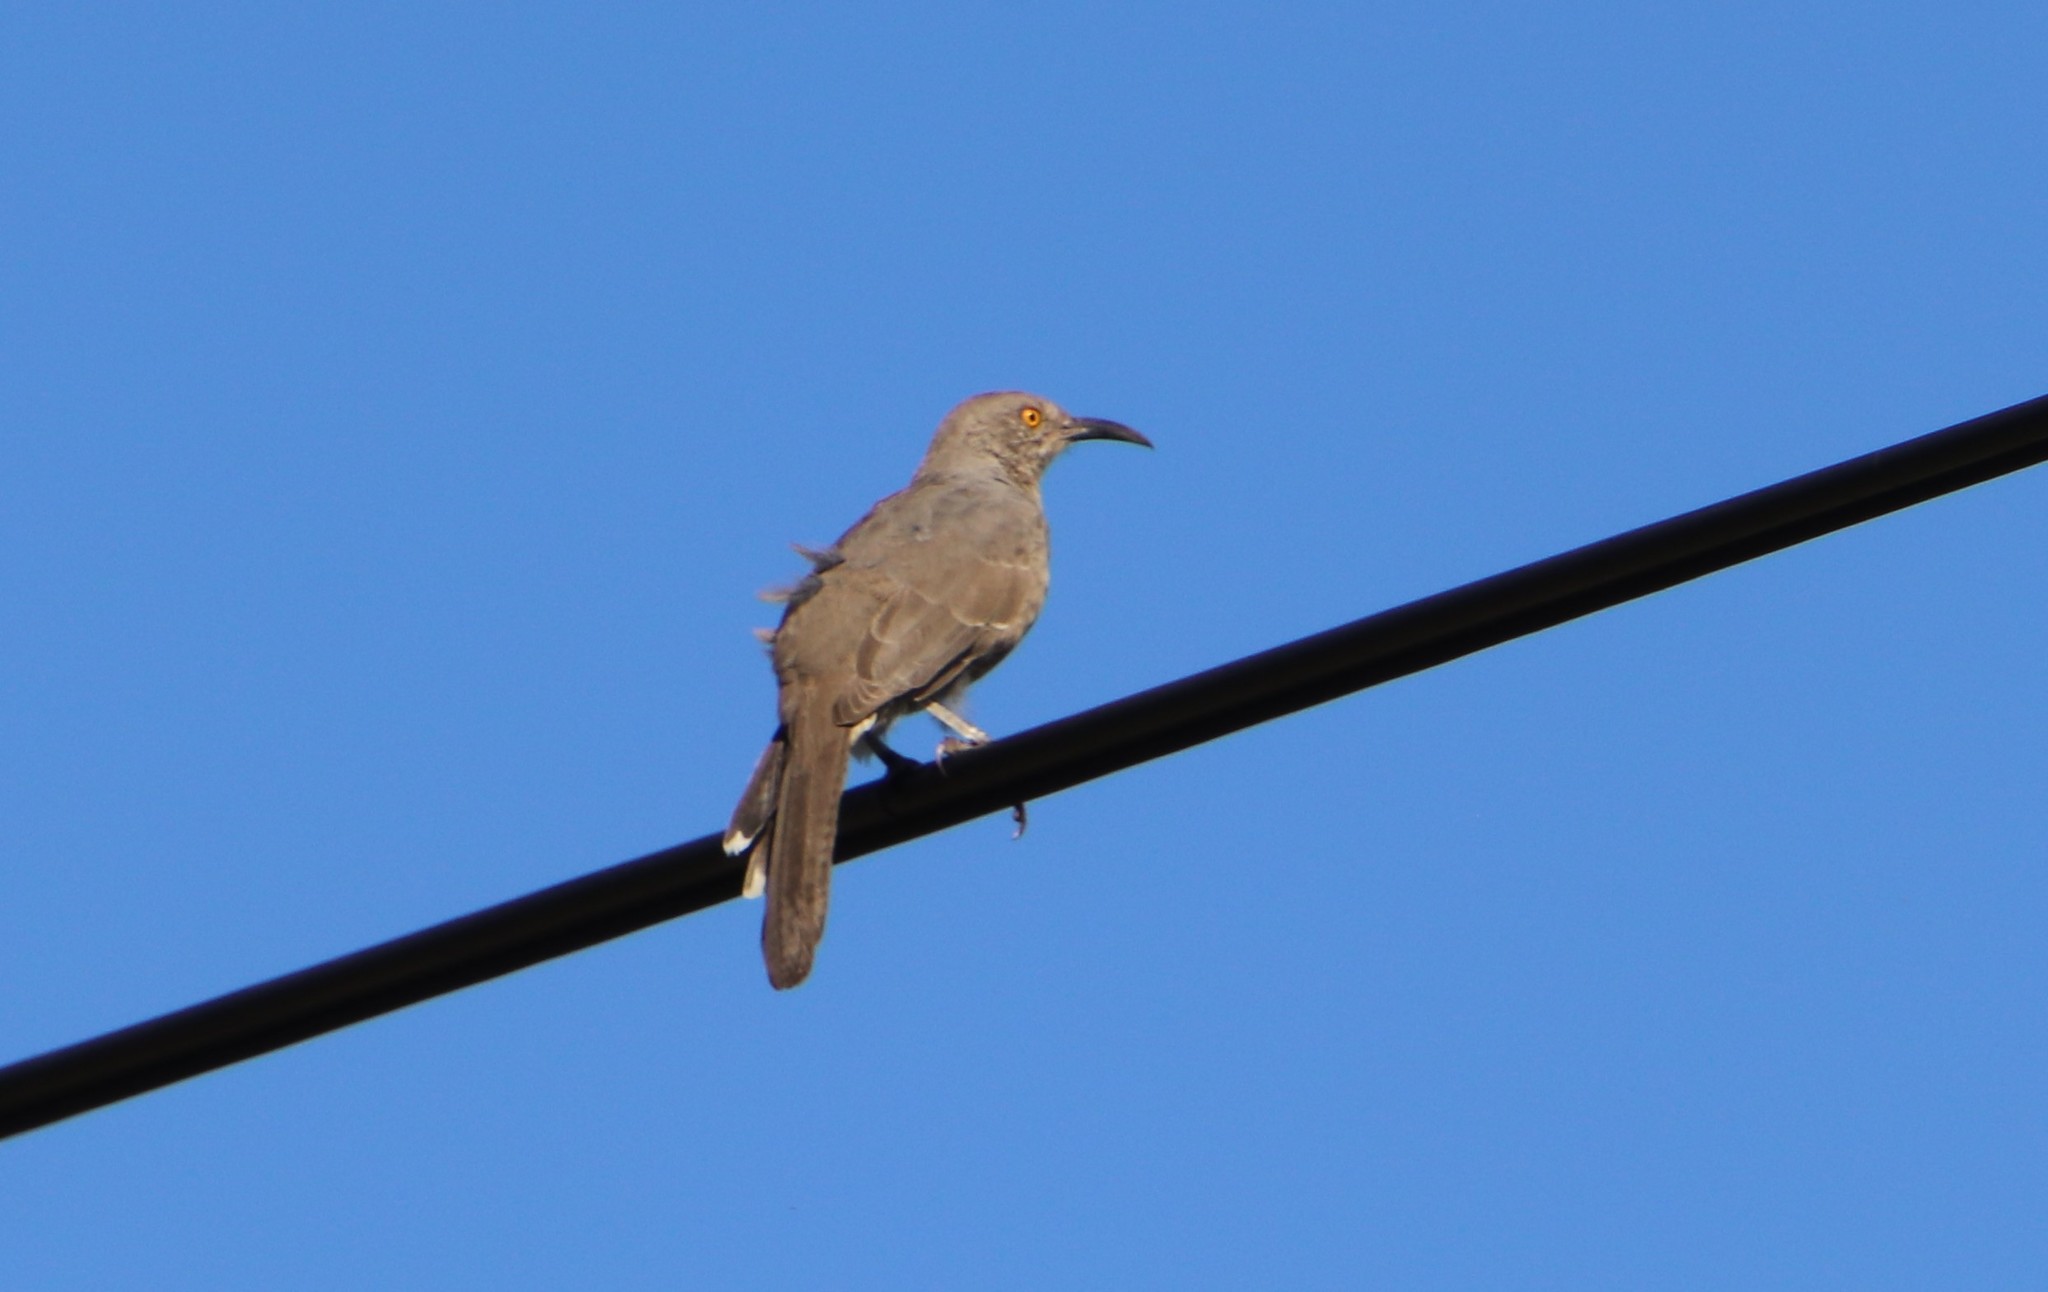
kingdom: Animalia
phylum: Chordata
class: Aves
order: Passeriformes
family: Mimidae
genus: Toxostoma
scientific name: Toxostoma curvirostre
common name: Curve-billed thrasher
